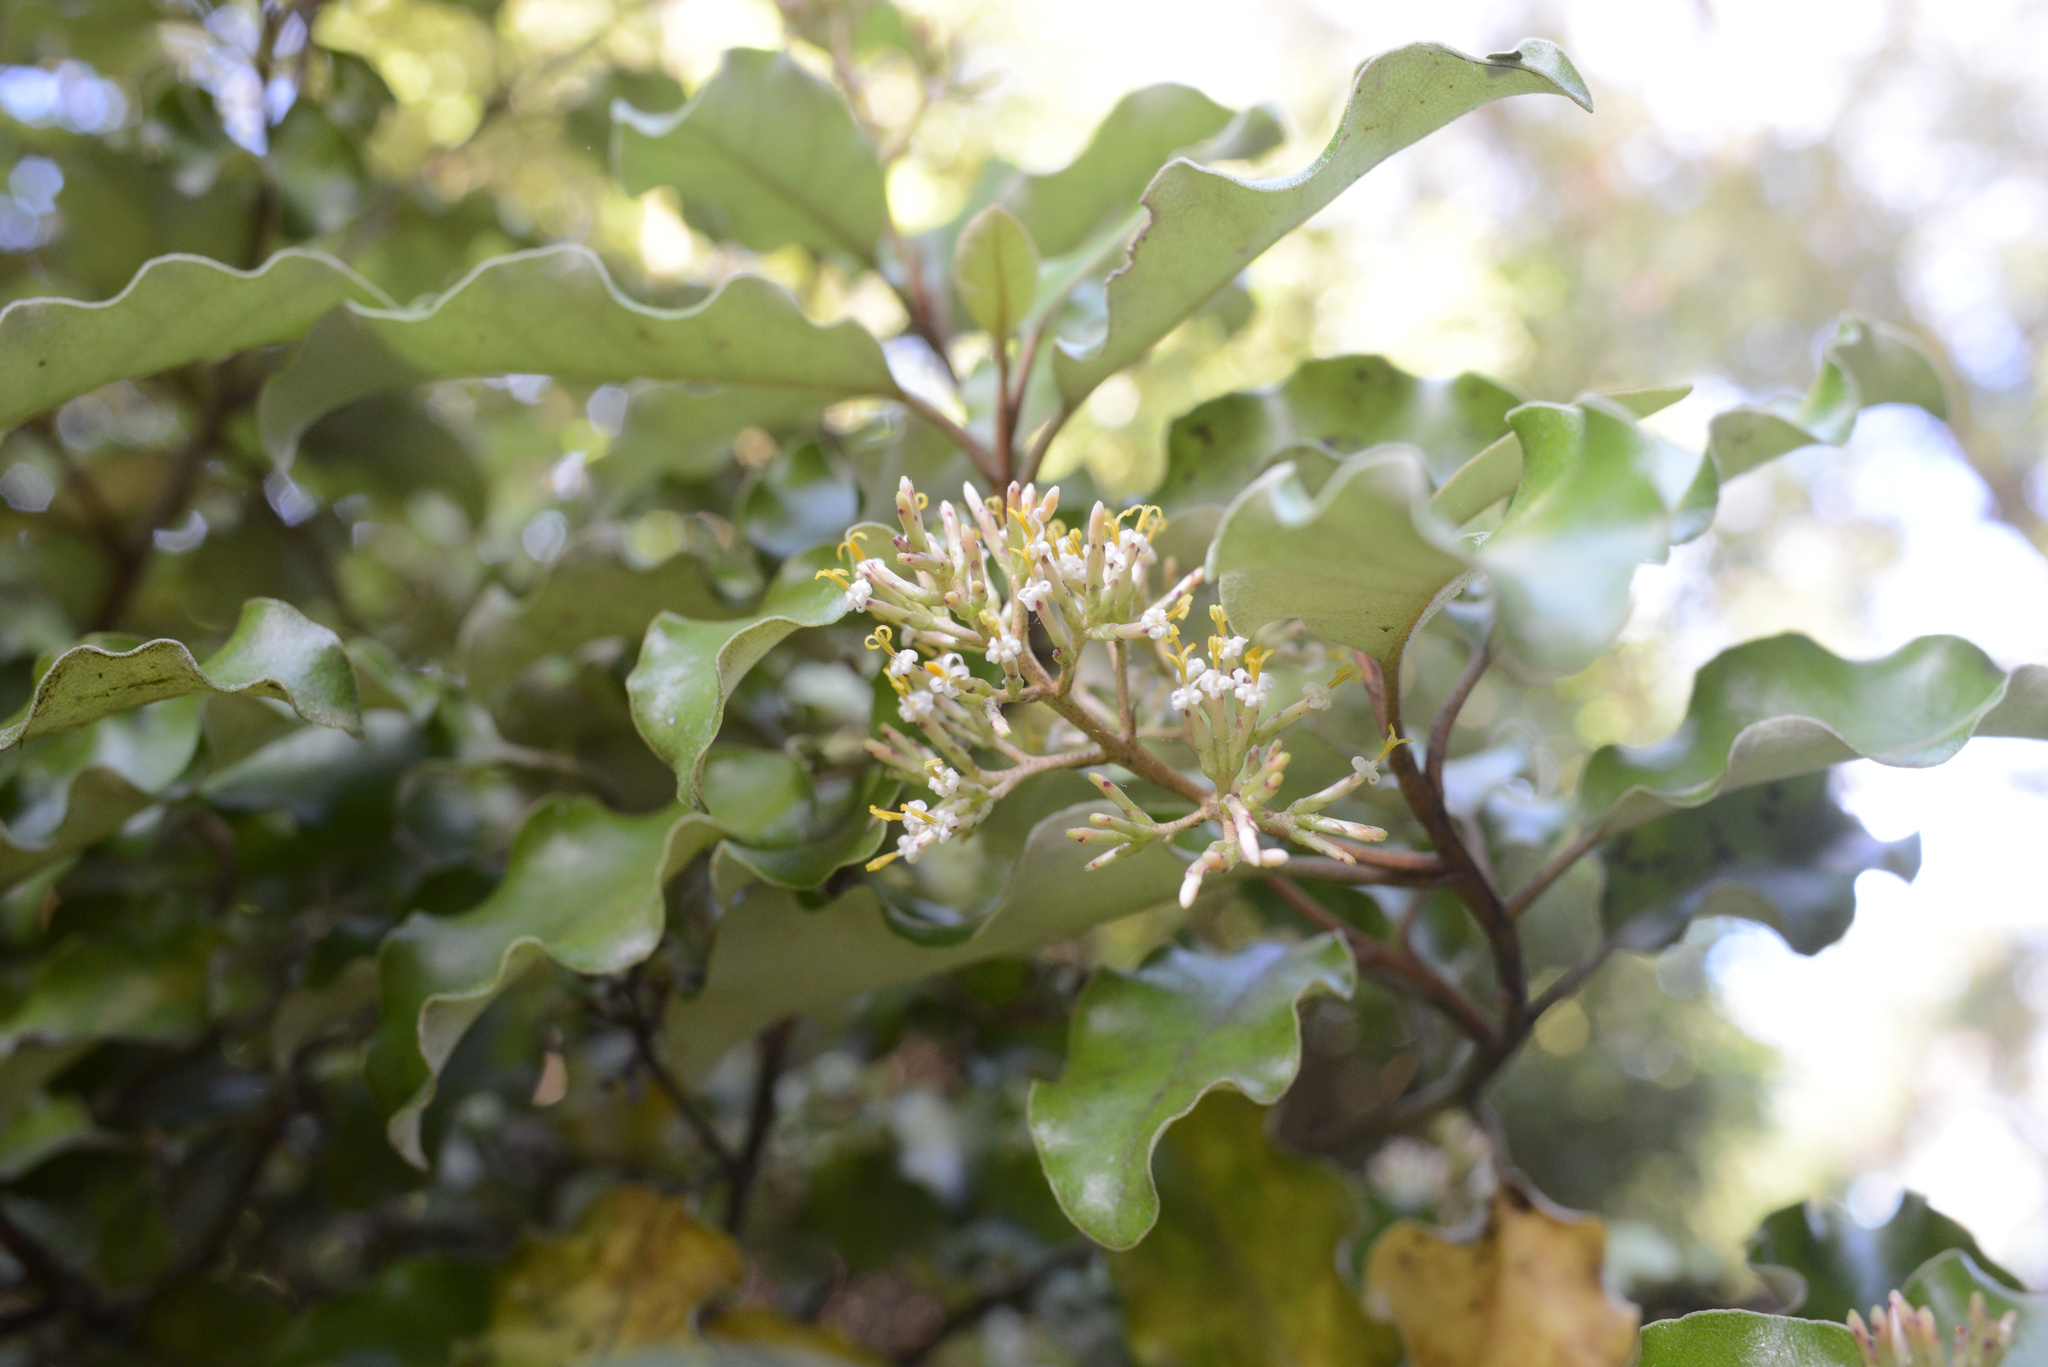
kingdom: Plantae
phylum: Tracheophyta
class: Magnoliopsida
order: Asterales
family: Asteraceae
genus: Olearia
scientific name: Olearia paniculata
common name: Akiraho
